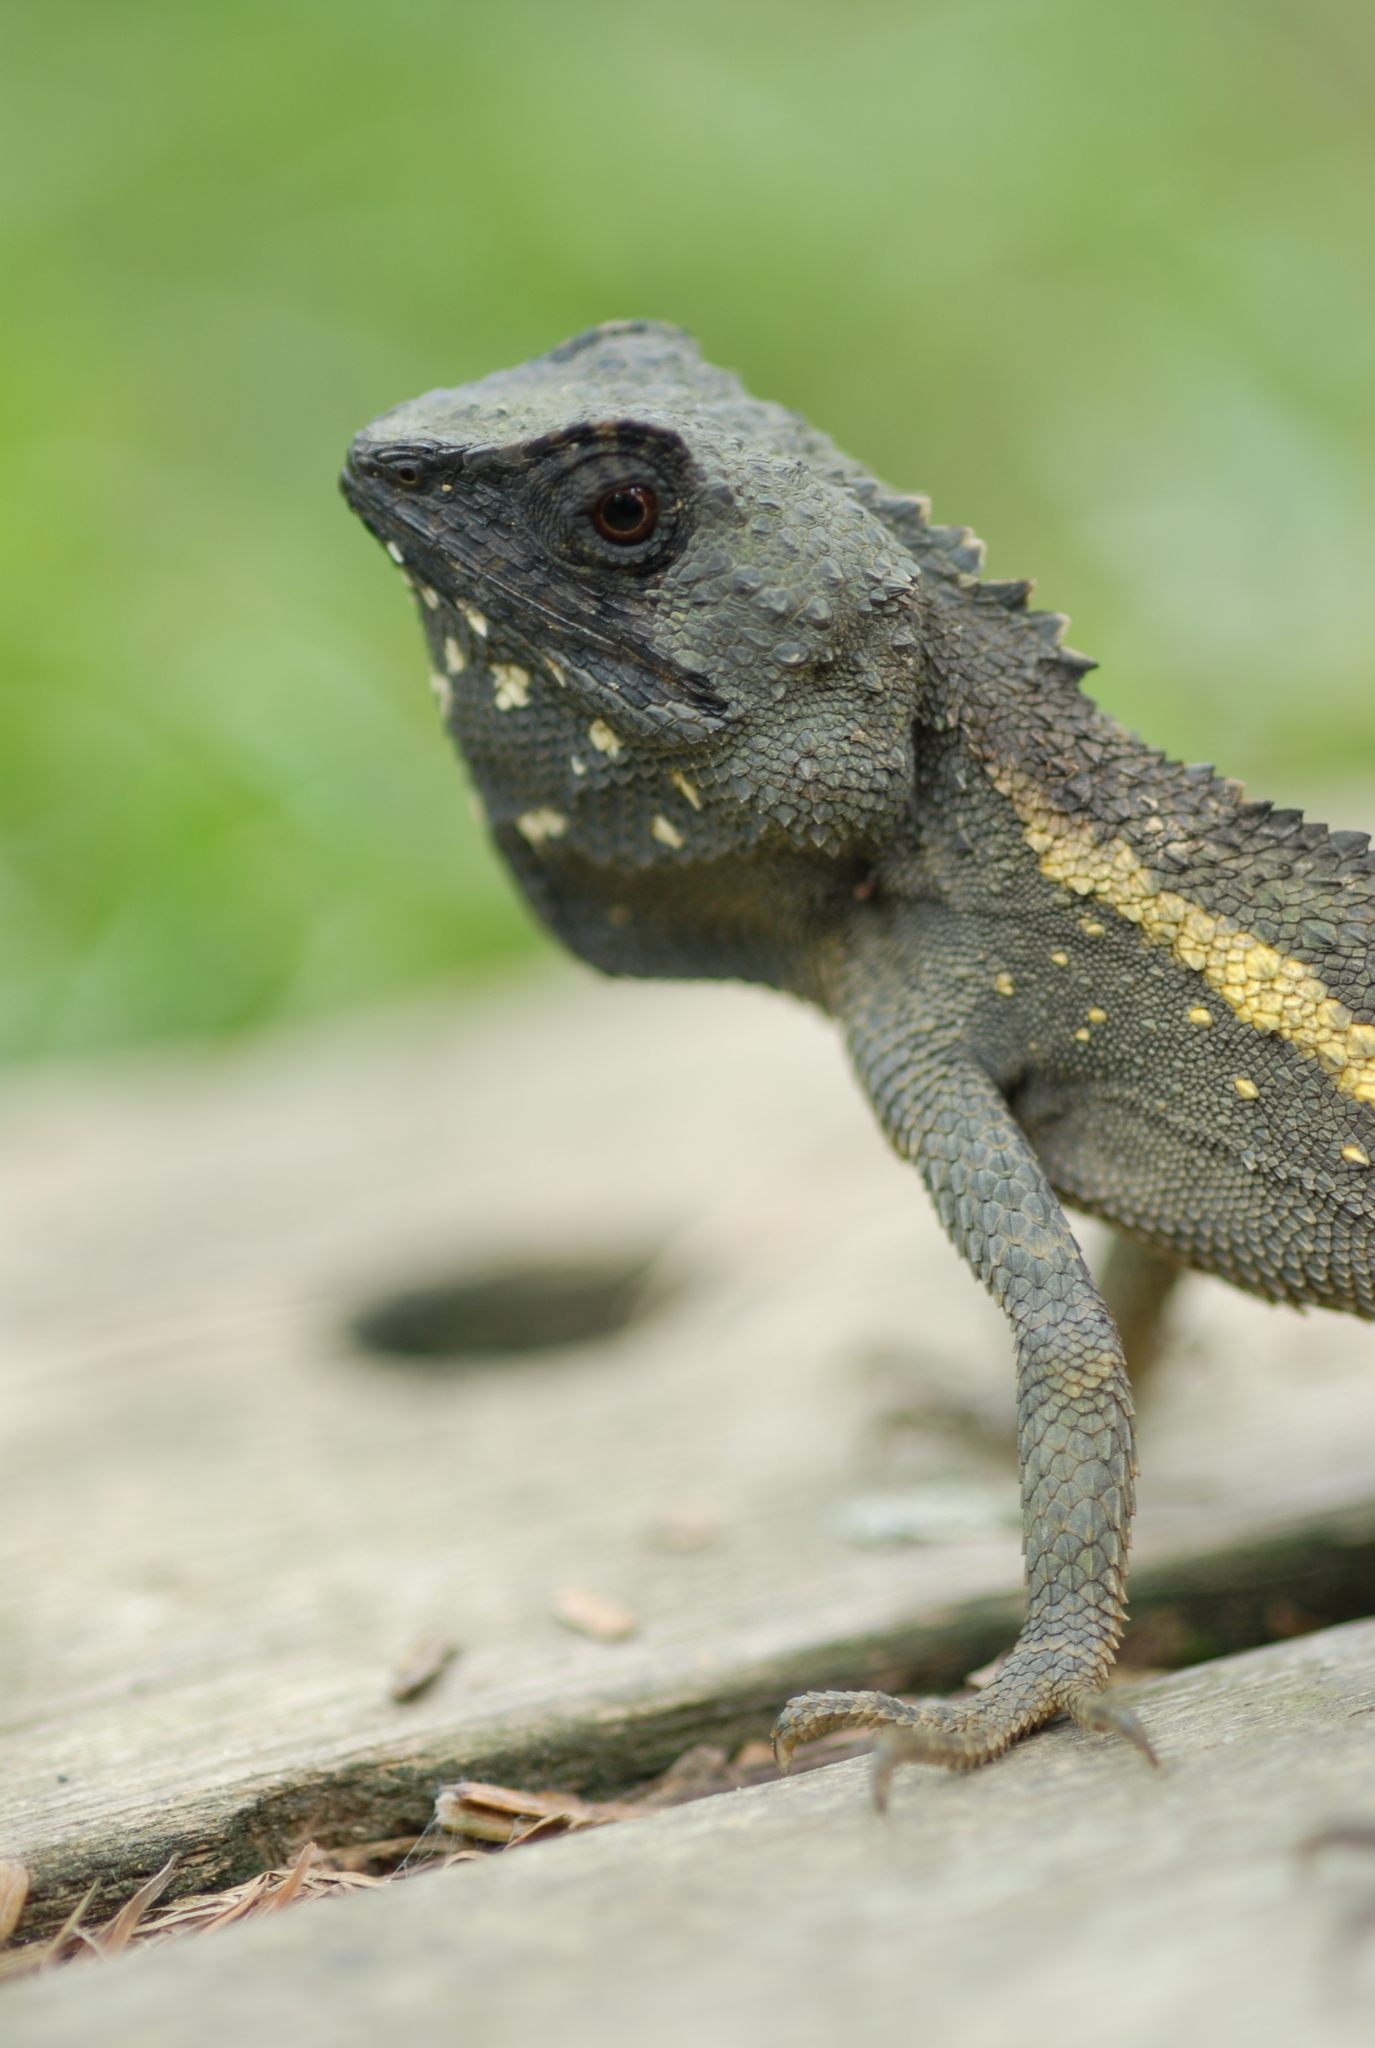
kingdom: Animalia
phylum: Chordata
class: Squamata
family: Agamidae
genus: Diploderma
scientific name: Diploderma swinhonis
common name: Taiwan japalure
